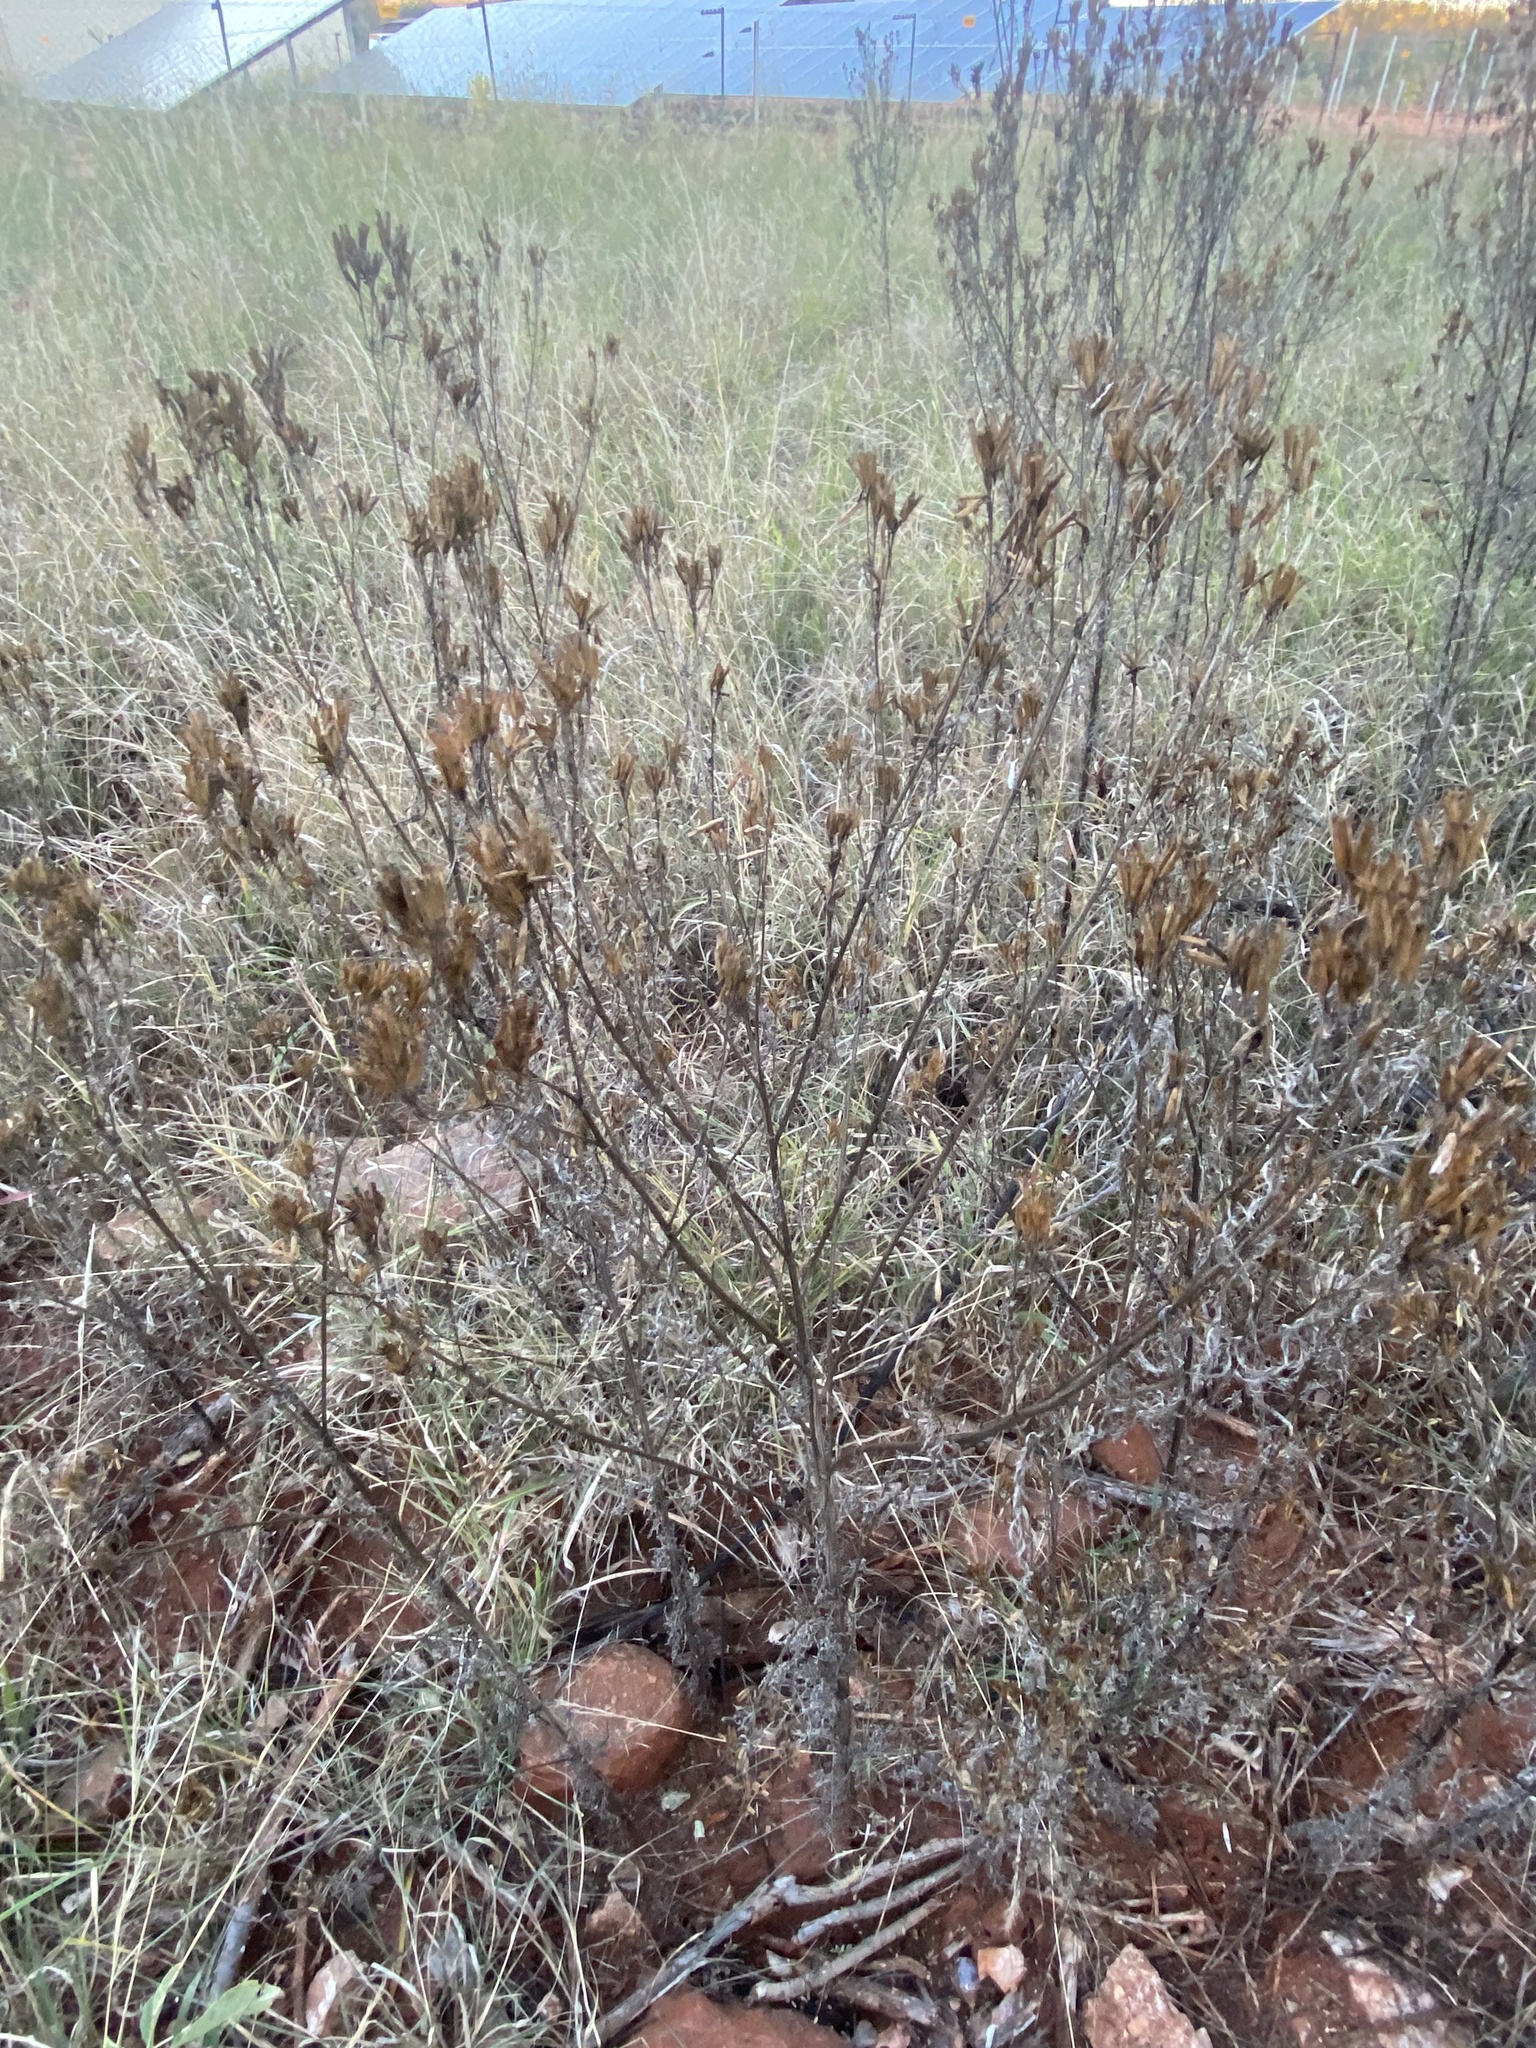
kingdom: Plantae
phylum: Tracheophyta
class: Magnoliopsida
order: Asterales
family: Asteraceae
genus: Tagetes
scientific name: Tagetes minuta
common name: Muster john henry
